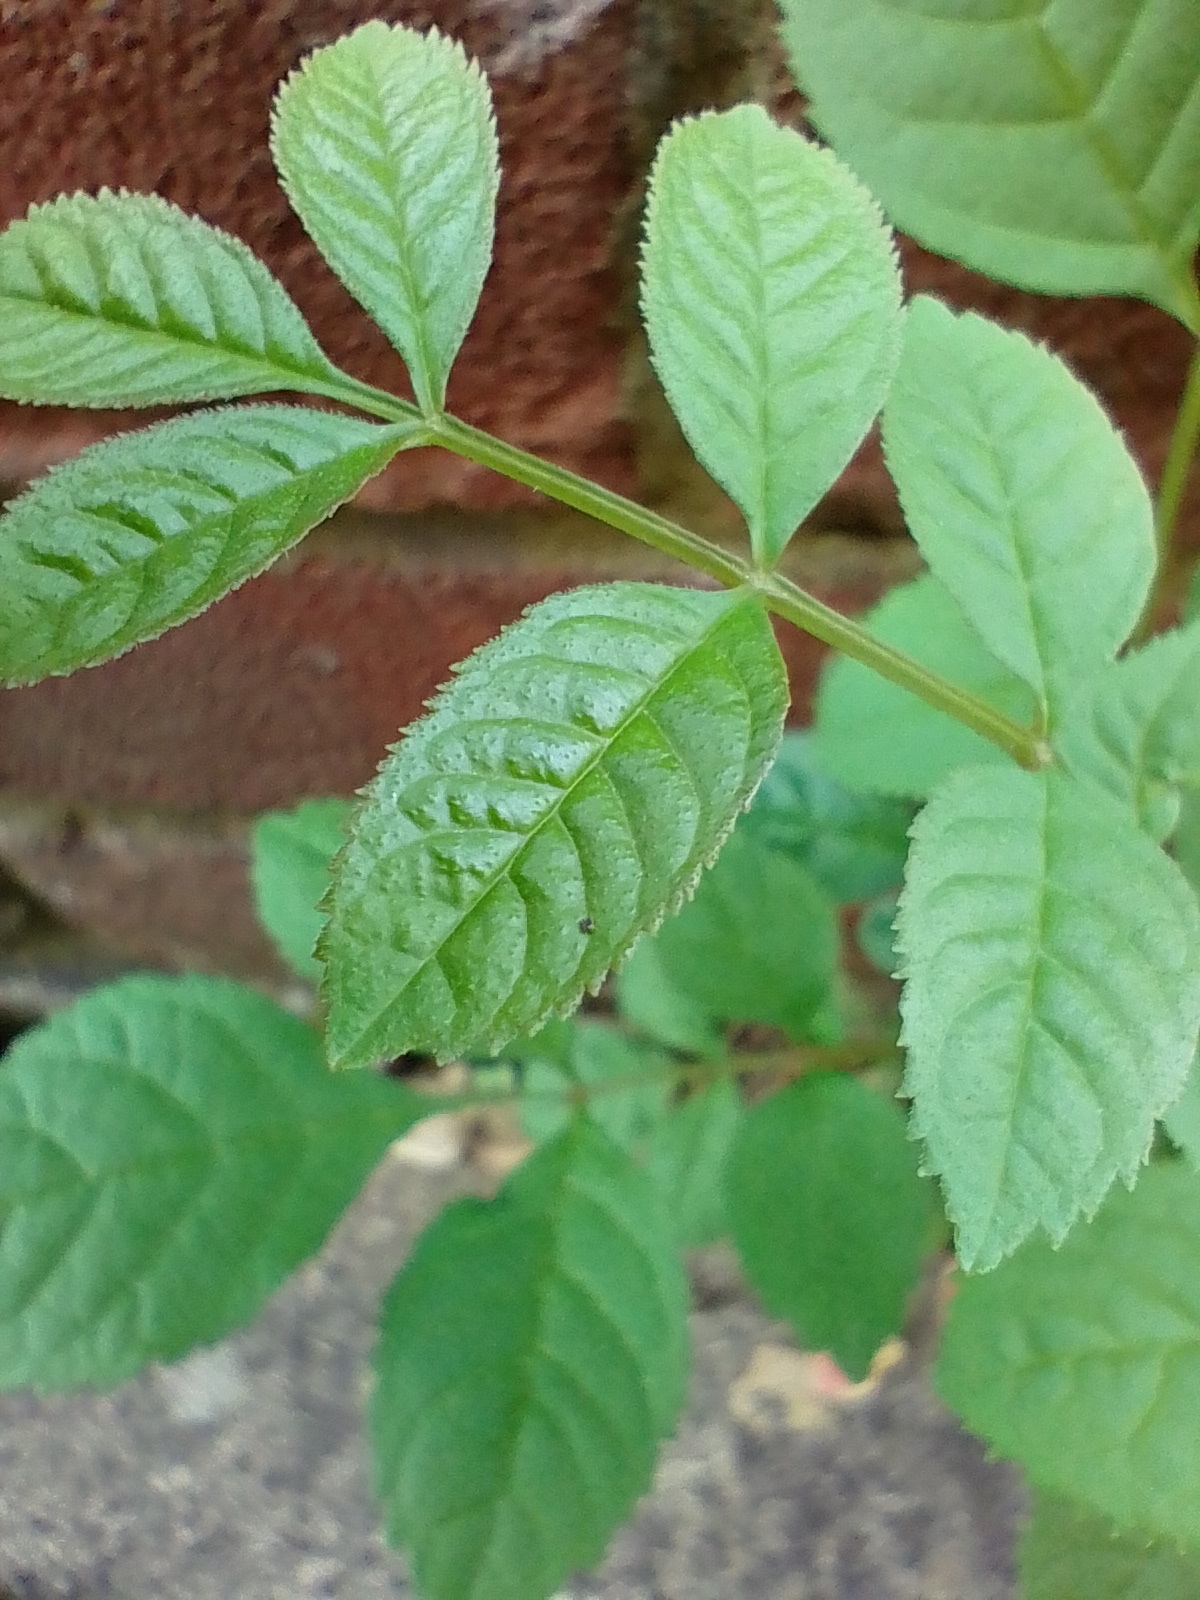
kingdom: Plantae
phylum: Tracheophyta
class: Magnoliopsida
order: Lamiales
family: Oleaceae
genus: Fraxinus
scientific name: Fraxinus excelsior
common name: European ash
